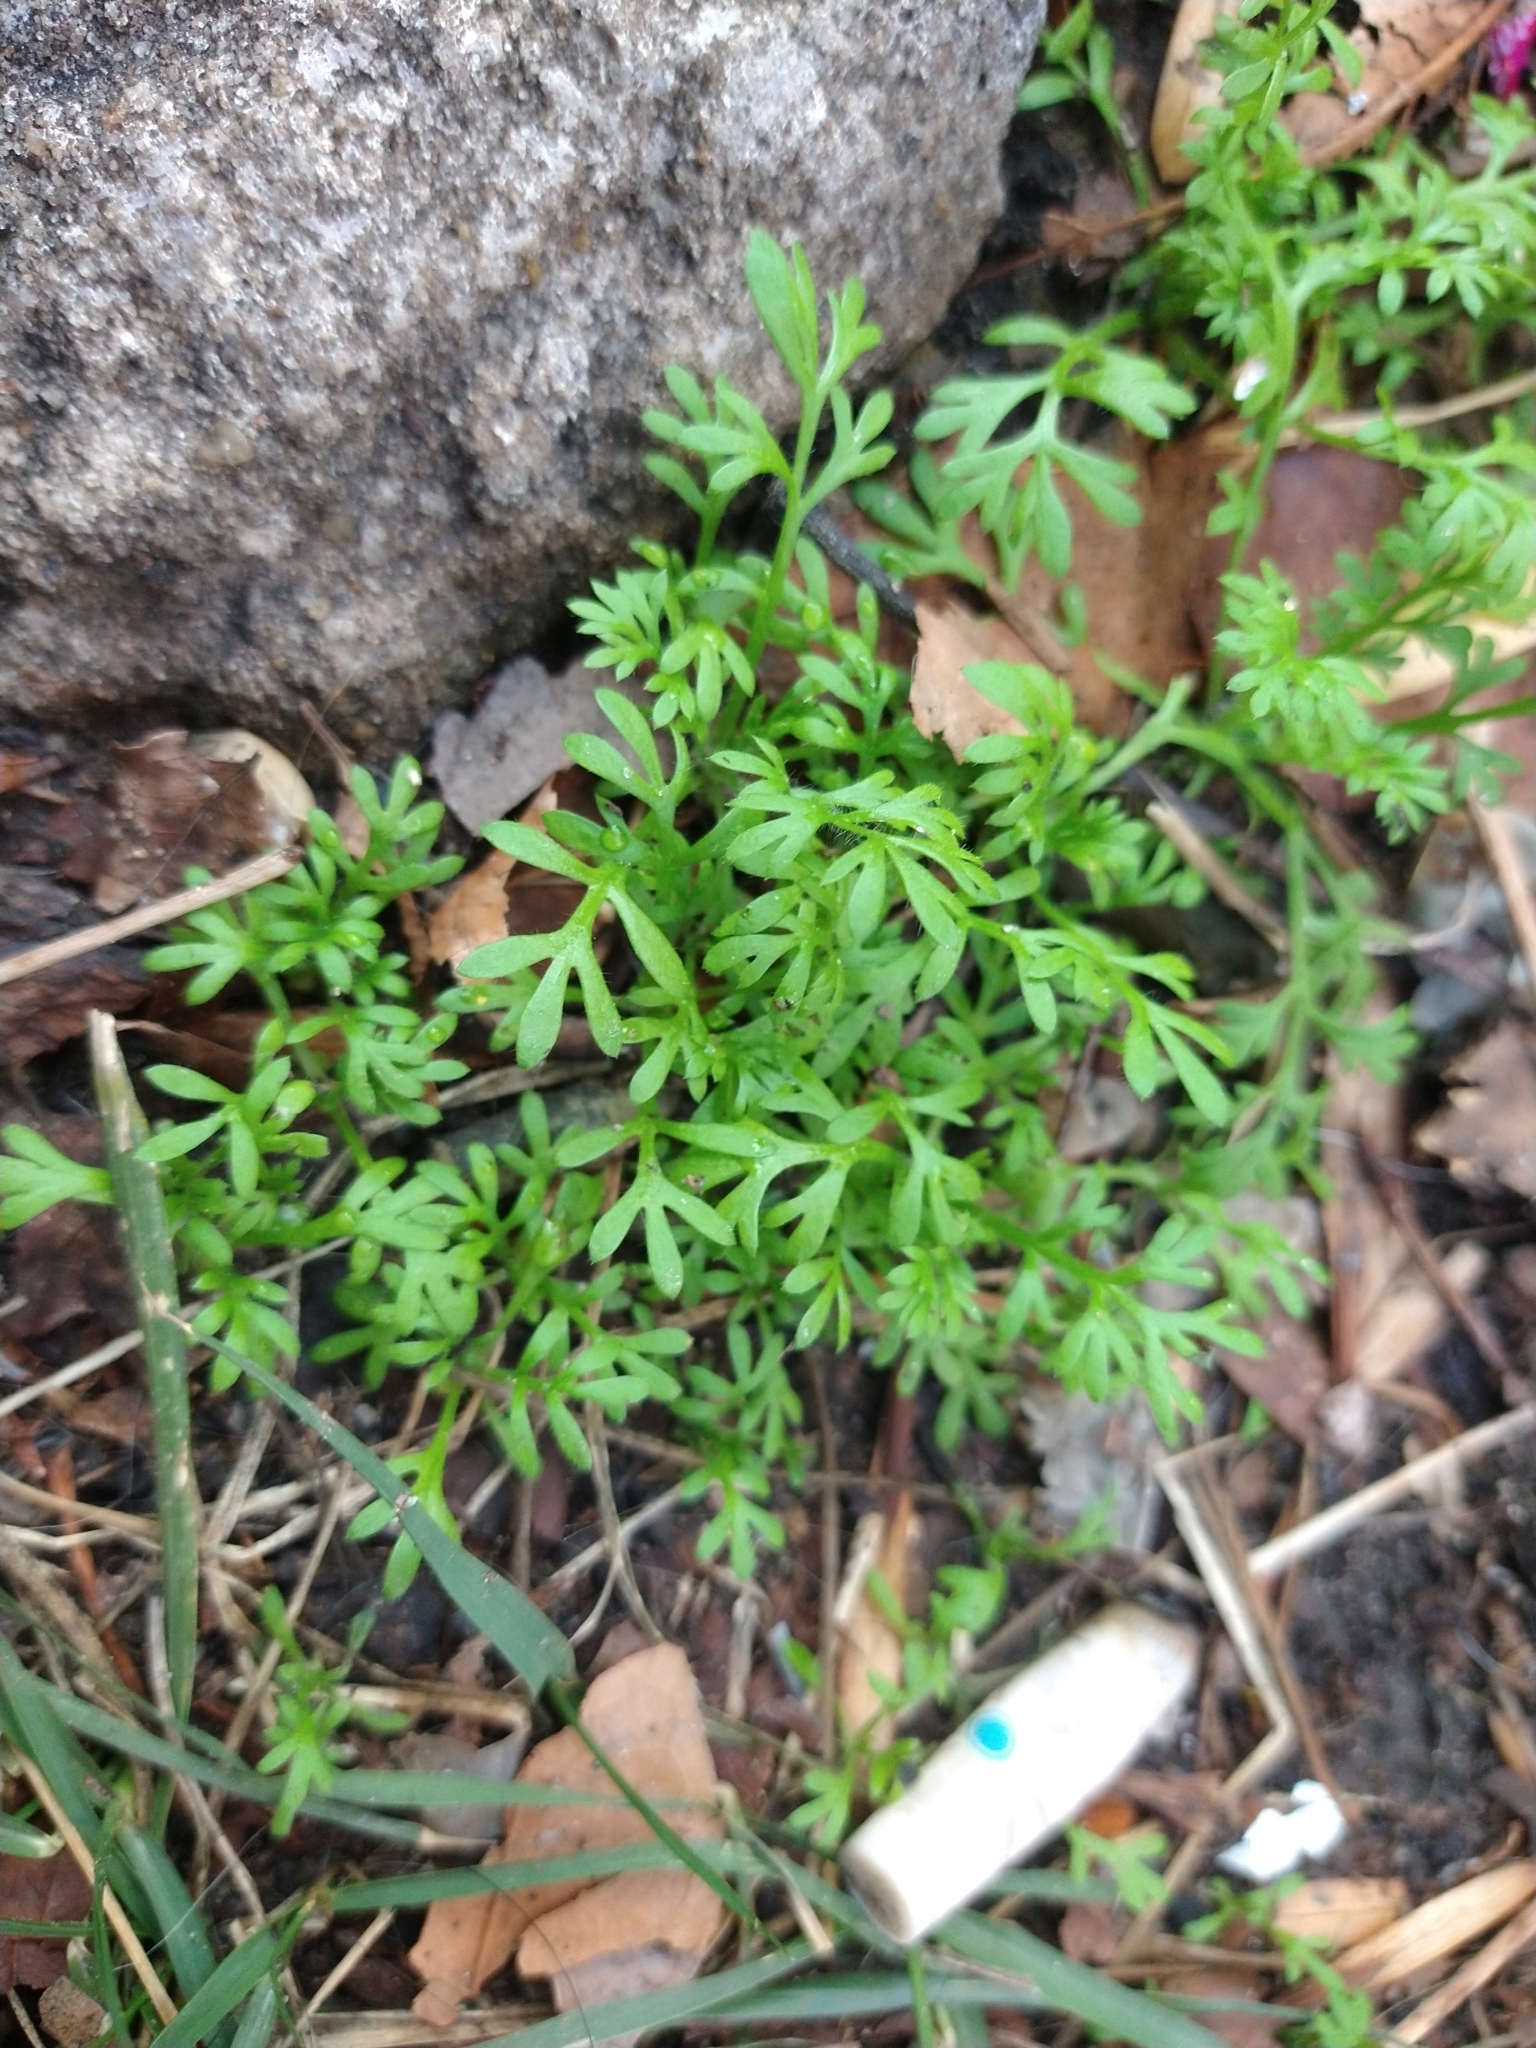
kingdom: Plantae
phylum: Tracheophyta
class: Magnoliopsida
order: Asterales
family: Asteraceae
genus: Cotula
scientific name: Cotula australis
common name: Australian waterbuttons
